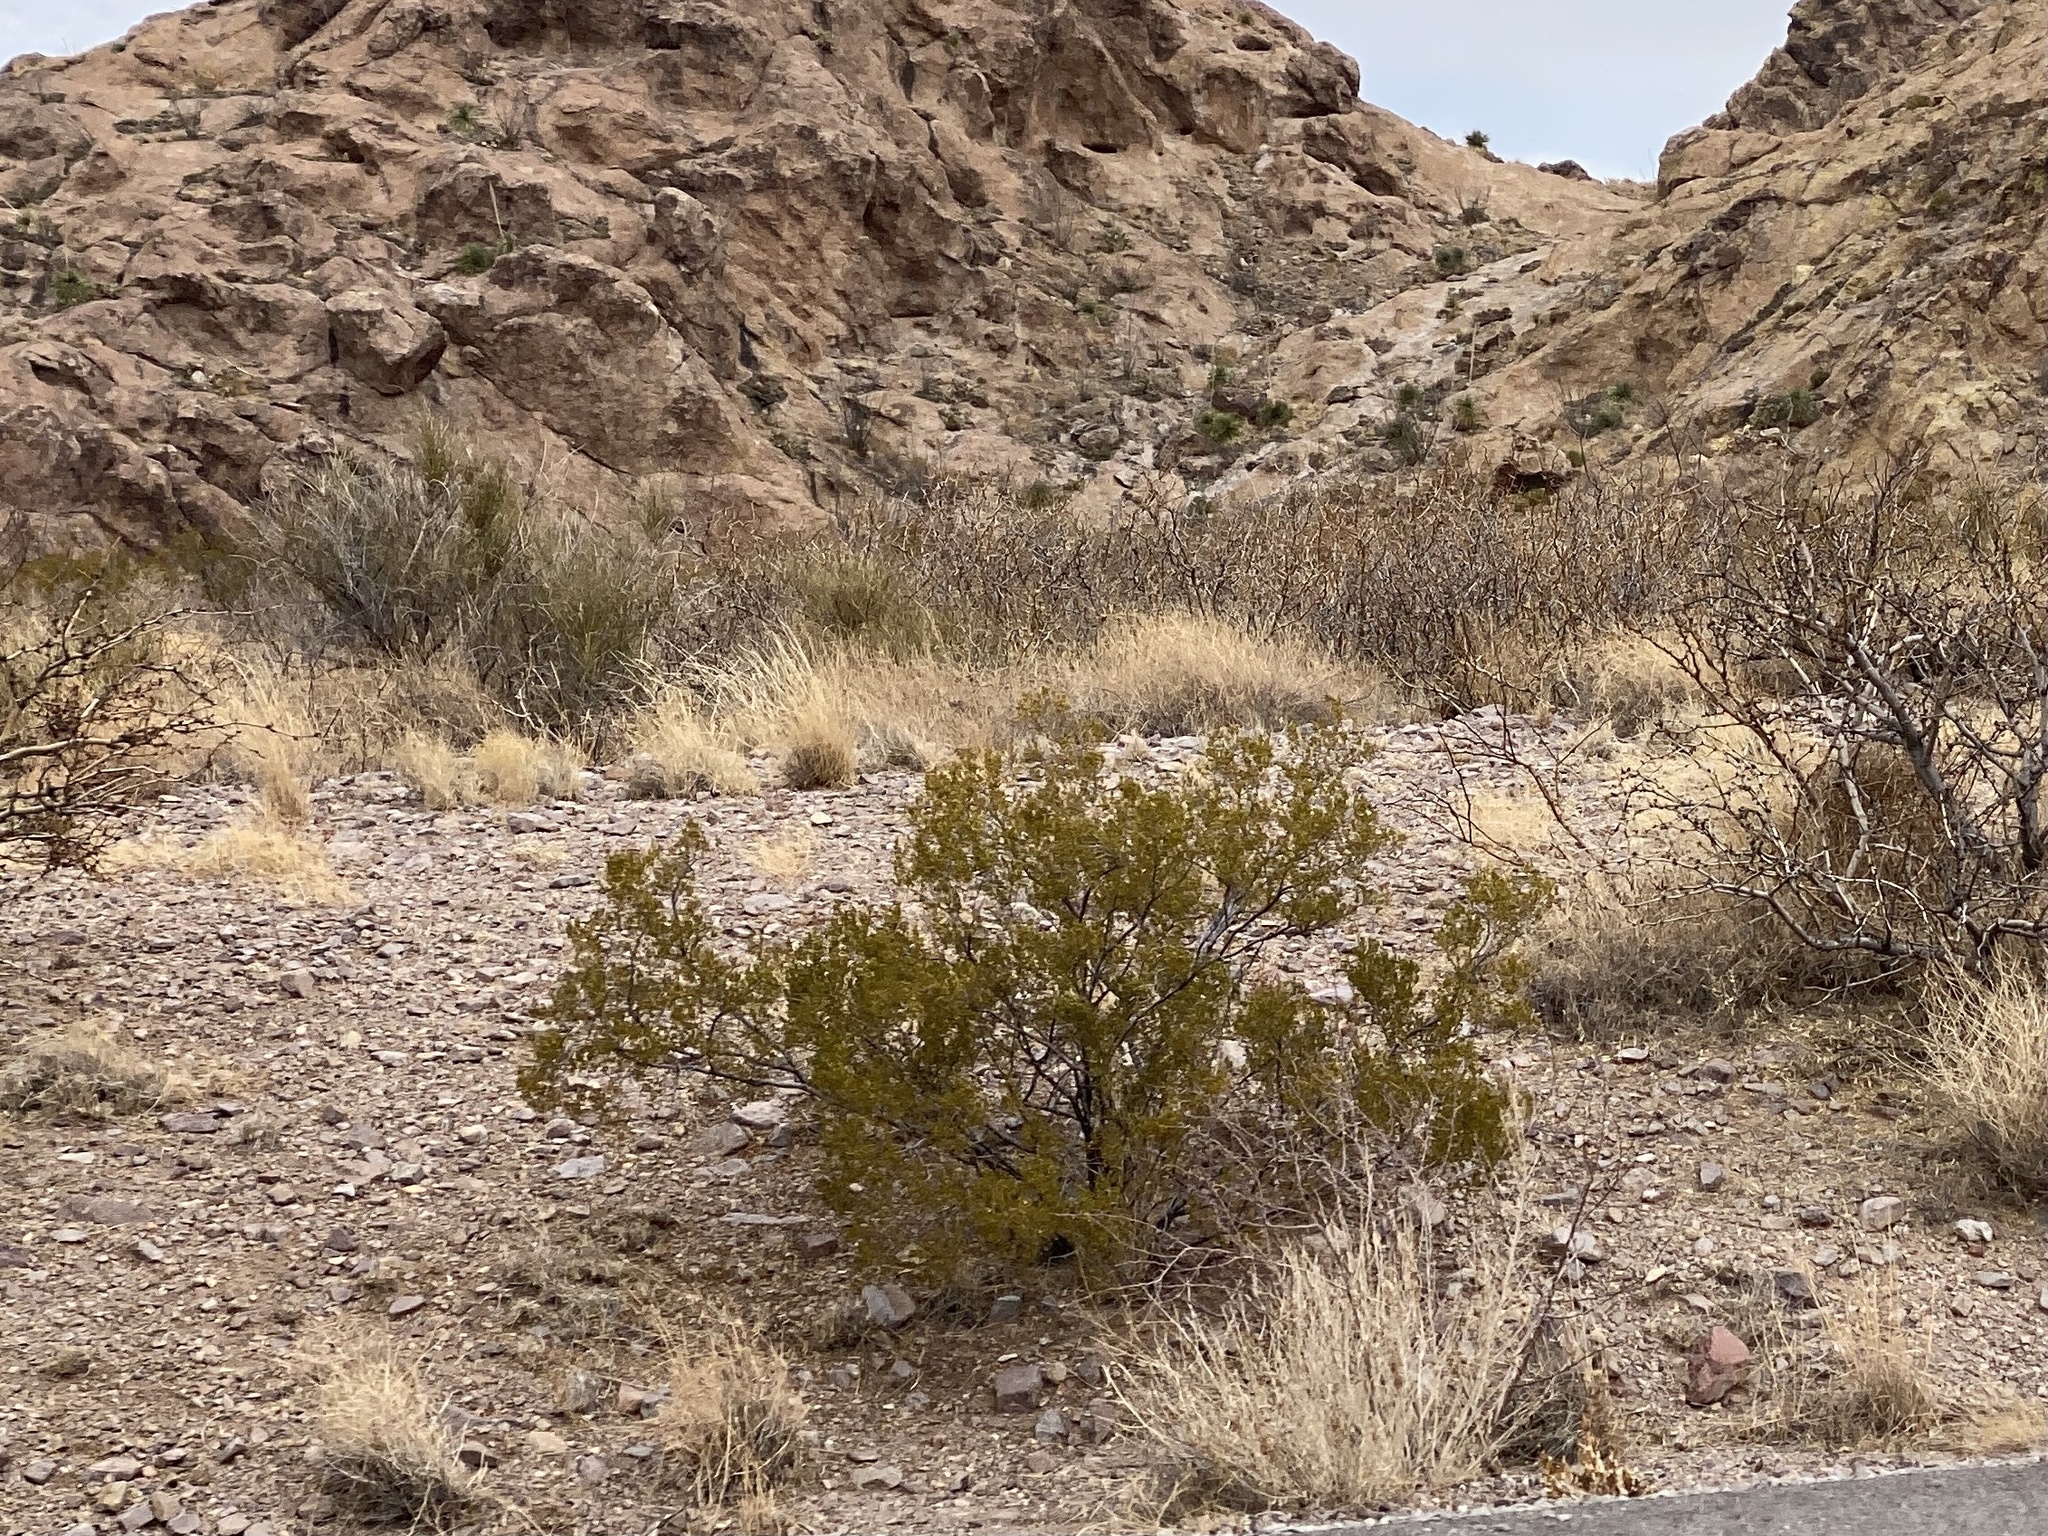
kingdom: Plantae
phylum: Tracheophyta
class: Magnoliopsida
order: Zygophyllales
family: Zygophyllaceae
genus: Larrea
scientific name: Larrea tridentata
